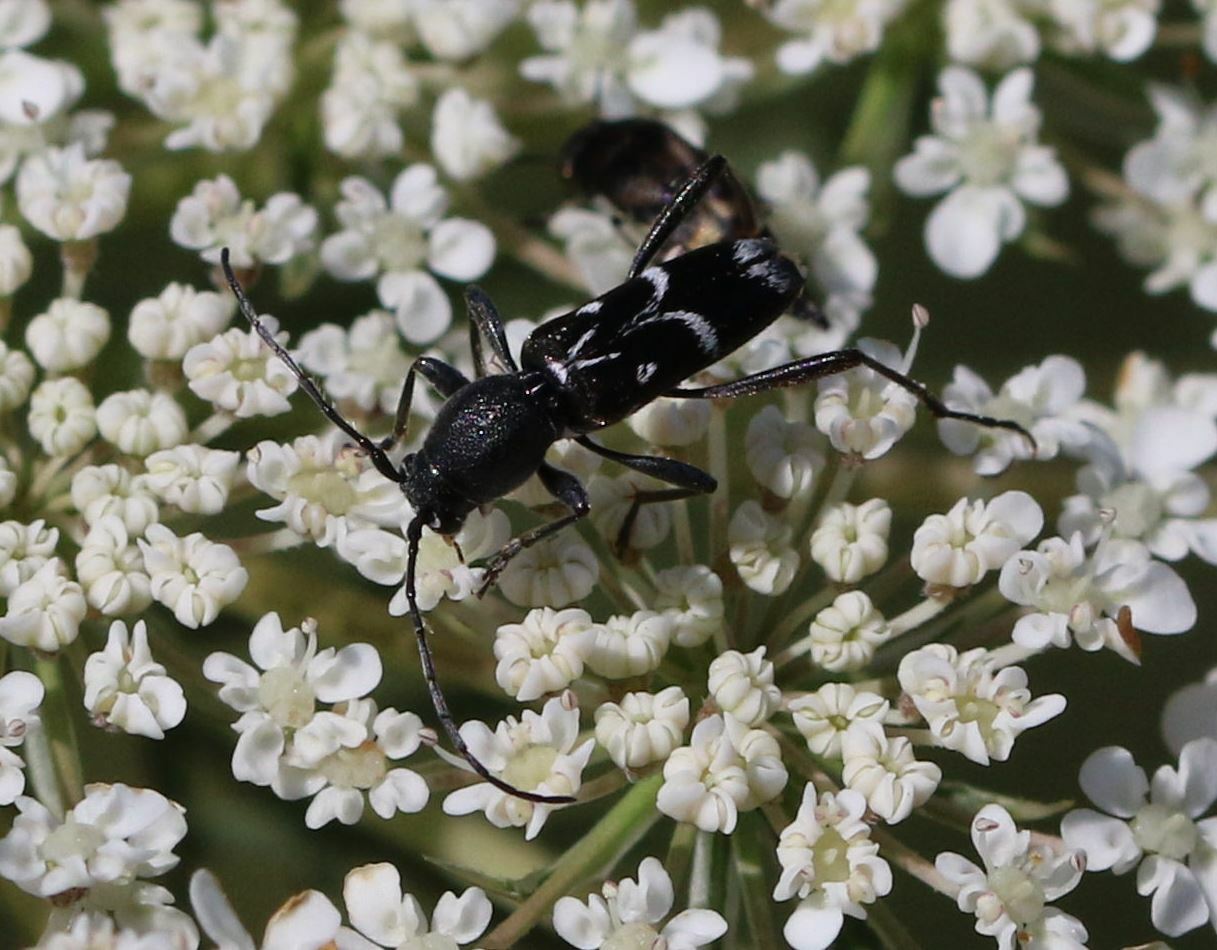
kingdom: Animalia
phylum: Arthropoda
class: Insecta
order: Coleoptera
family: Cerambycidae
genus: Chlorophorus
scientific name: Chlorophorus sartor
